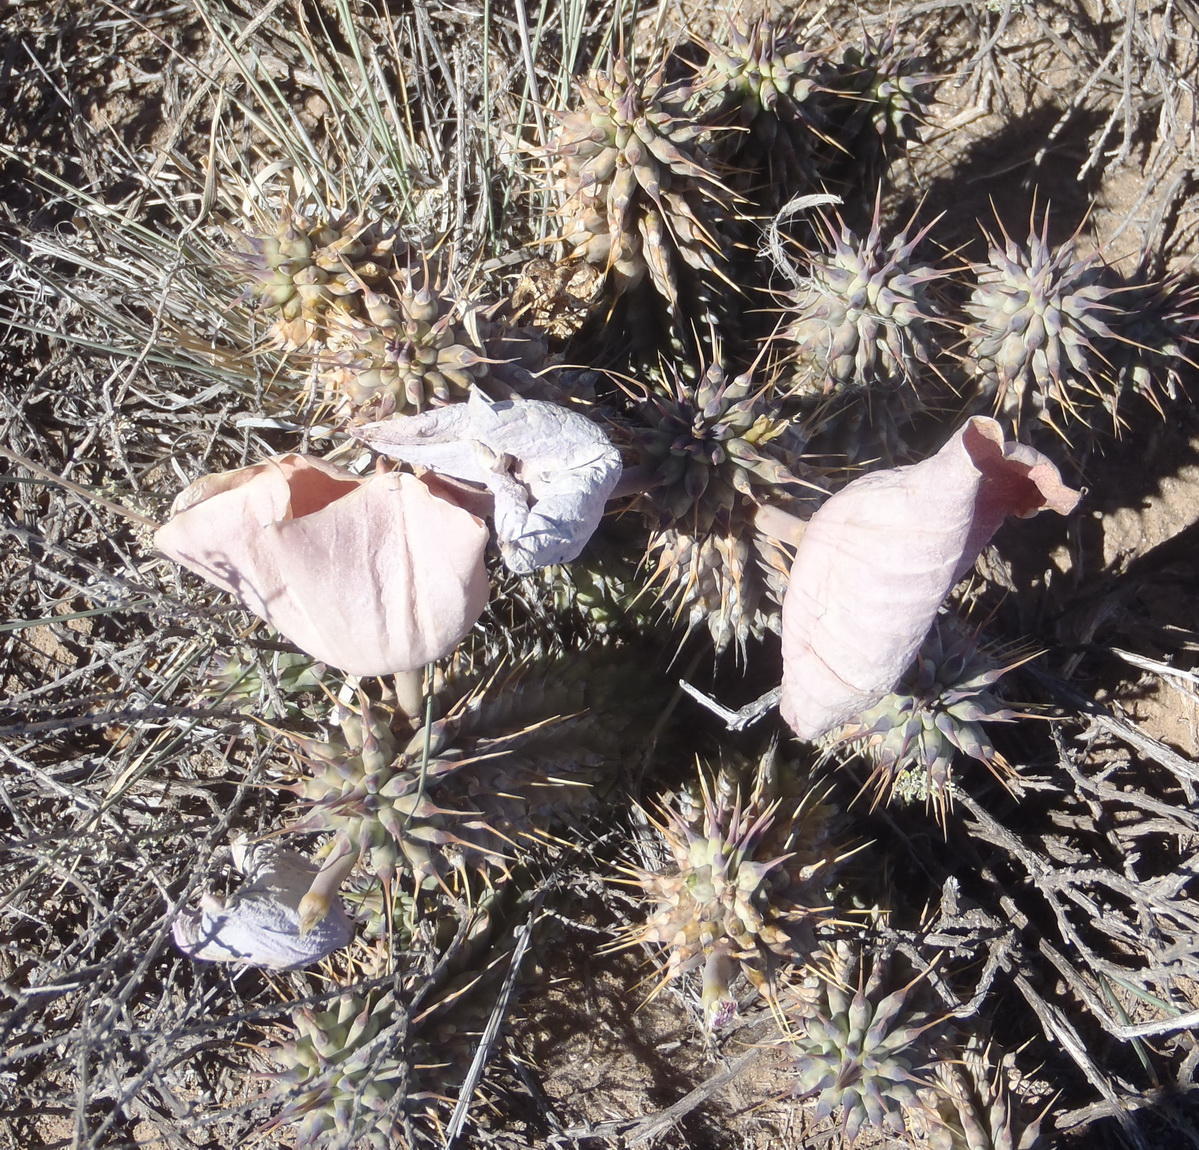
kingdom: Plantae
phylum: Tracheophyta
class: Magnoliopsida
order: Gentianales
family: Apocynaceae
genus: Hoodia
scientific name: Hoodia gordonii
